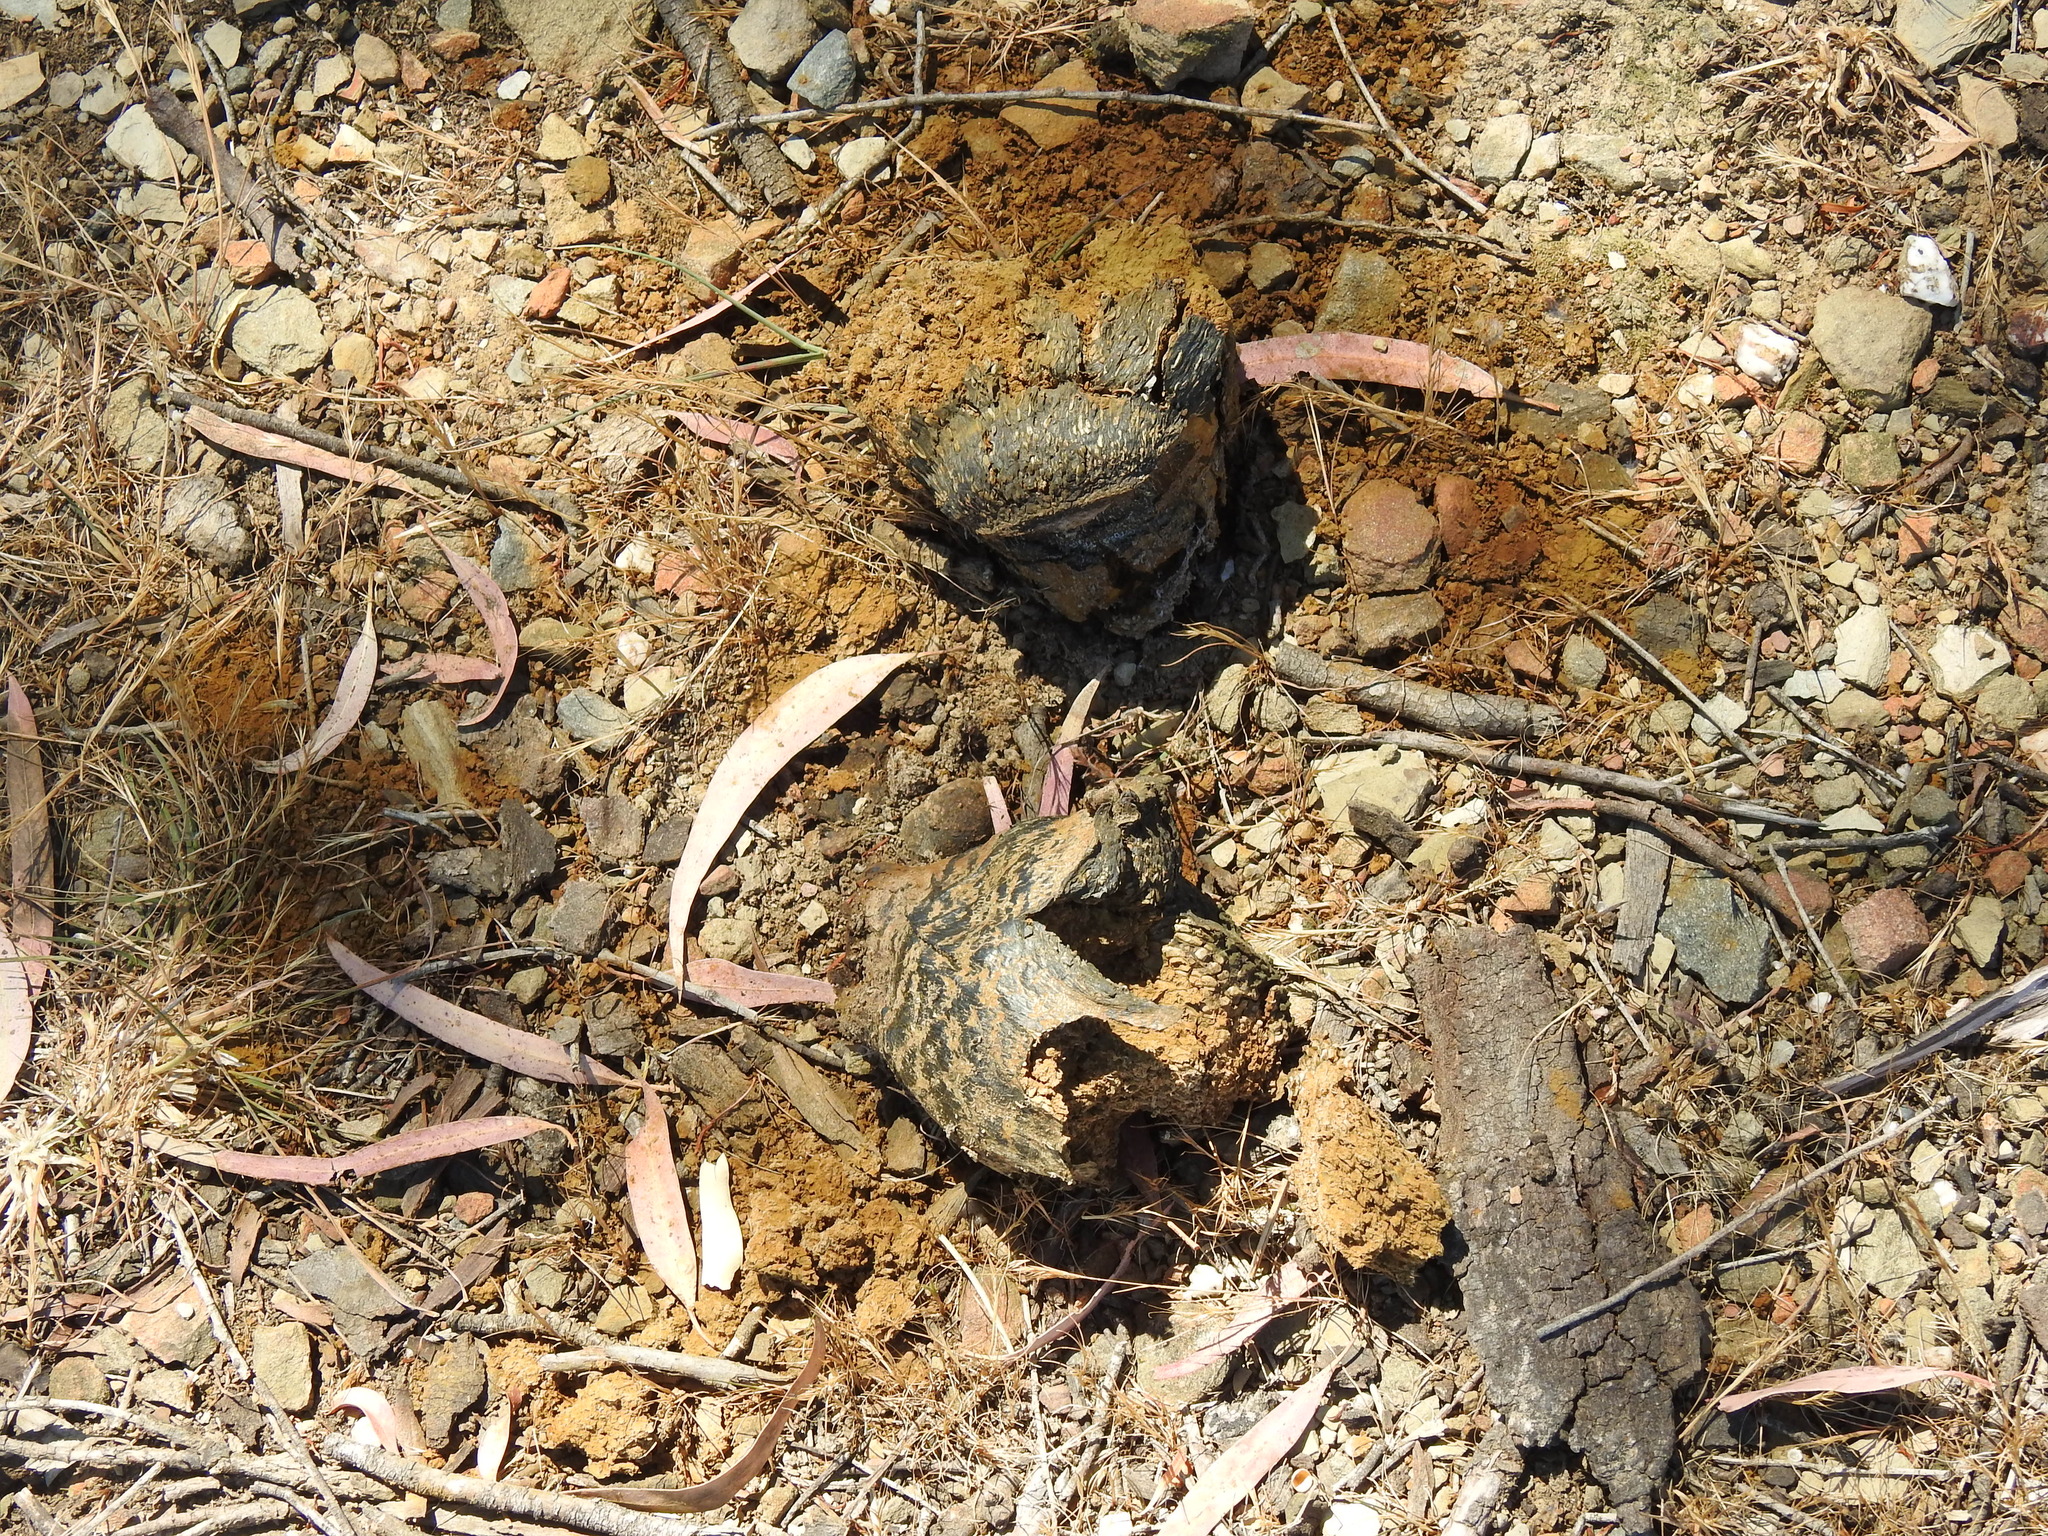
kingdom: Fungi
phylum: Basidiomycota
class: Agaricomycetes
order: Boletales
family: Sclerodermataceae
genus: Pisolithus
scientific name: Pisolithus arhizus
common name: Dyeball
